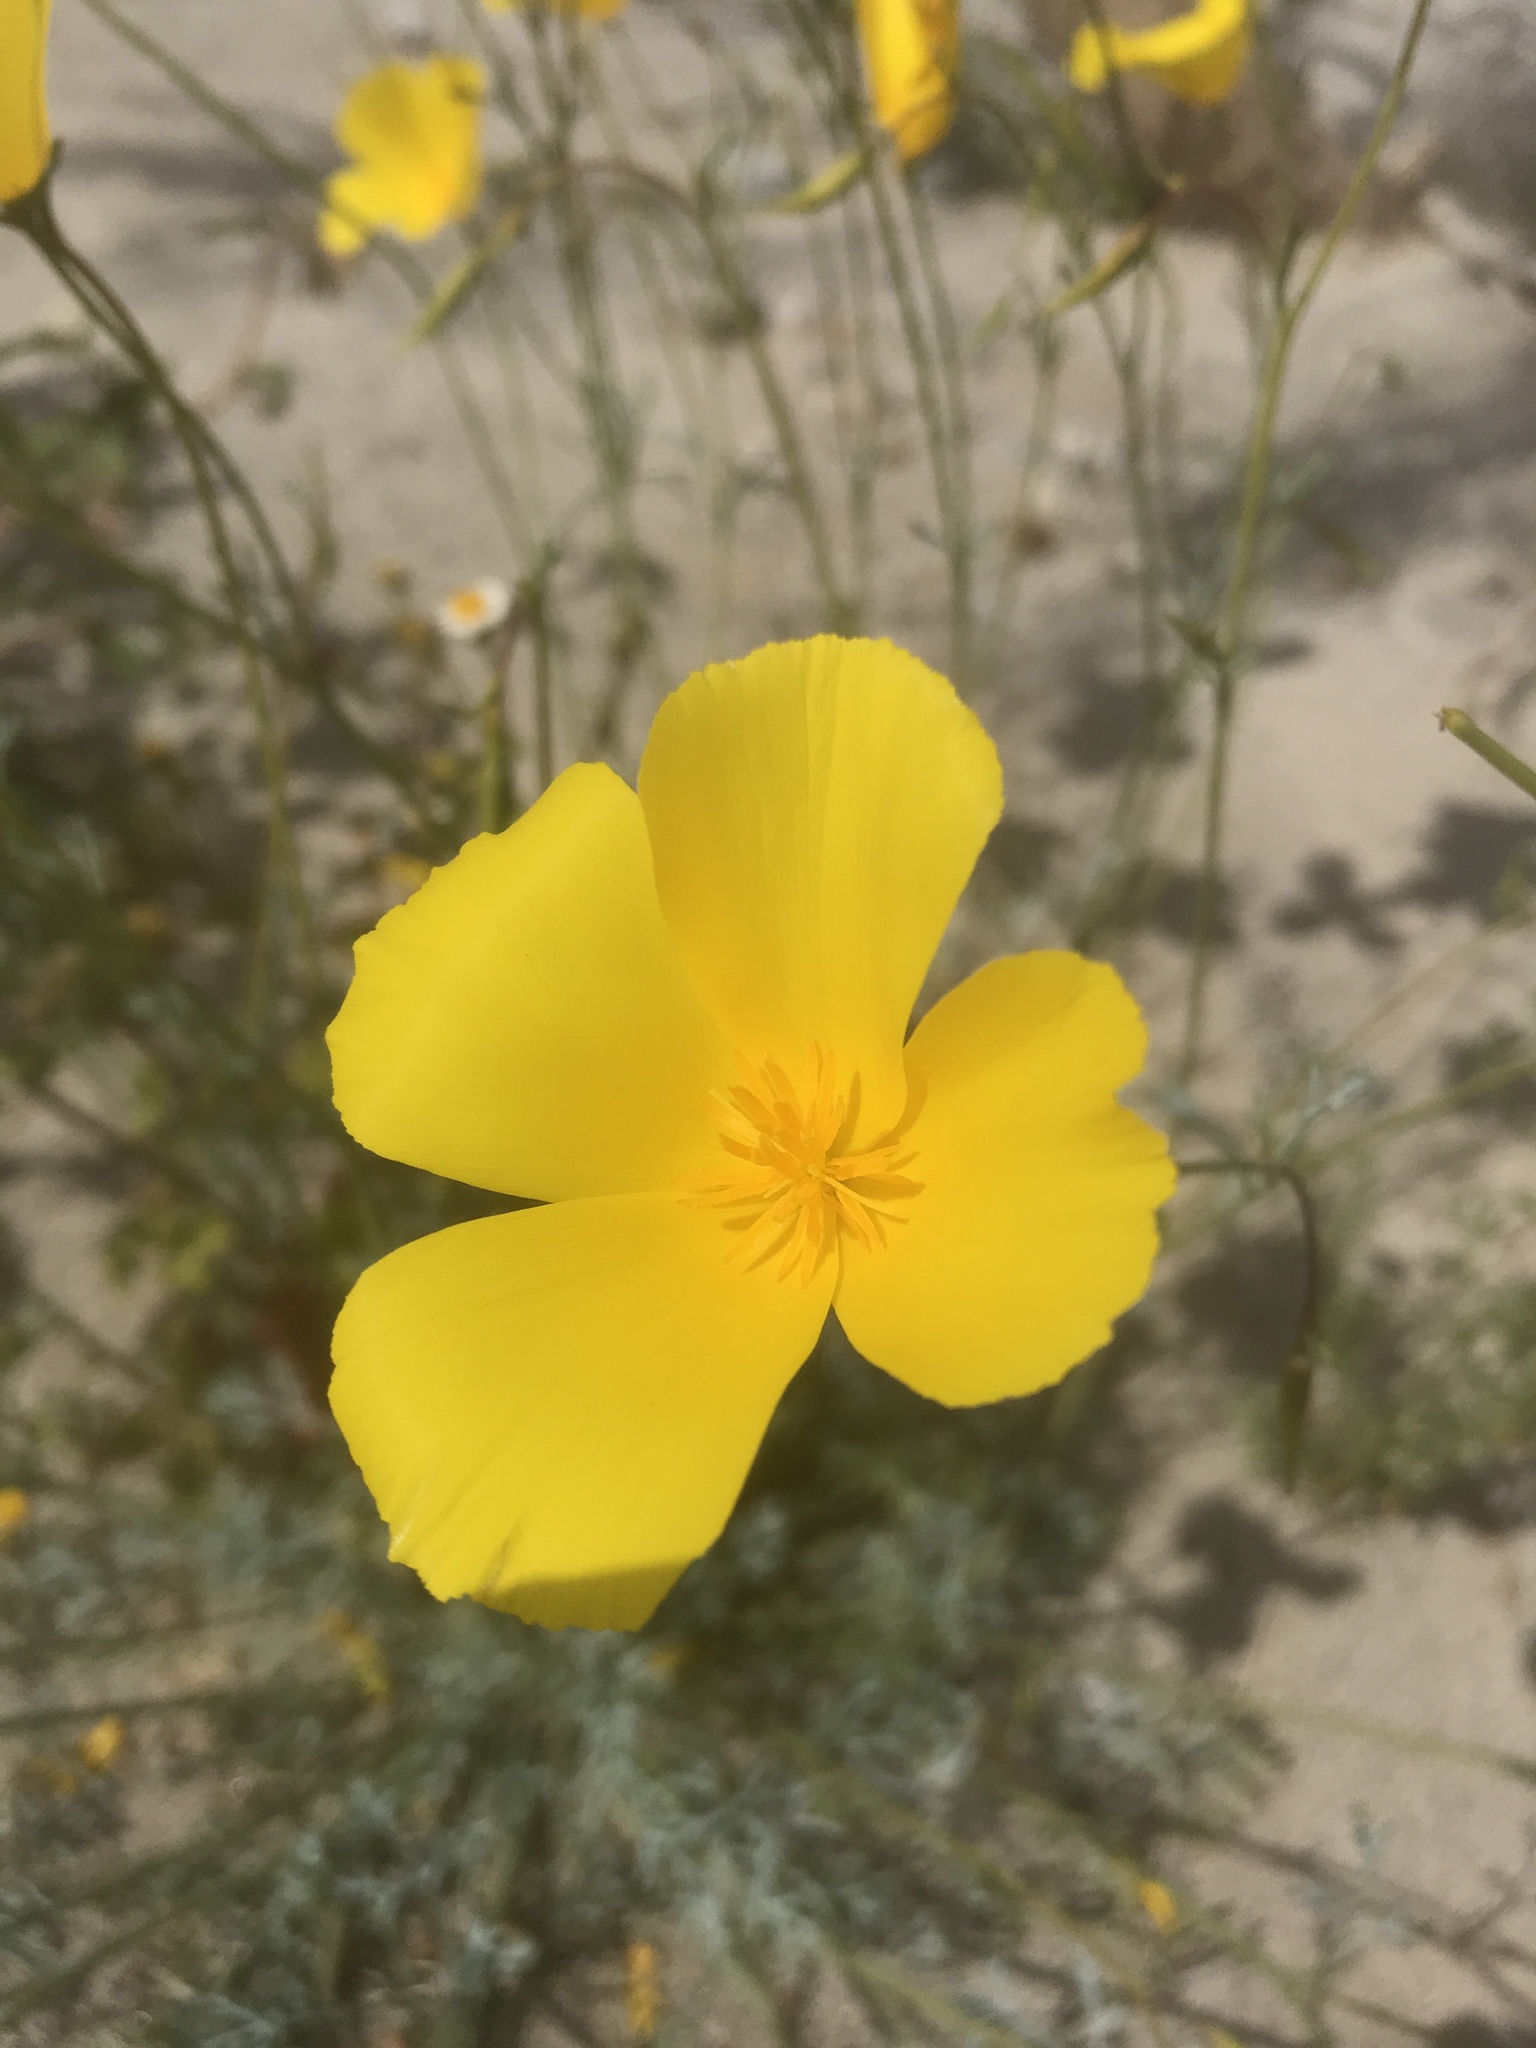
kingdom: Plantae
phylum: Tracheophyta
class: Magnoliopsida
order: Ranunculales
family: Papaveraceae
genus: Eschscholzia
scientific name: Eschscholzia parishii
